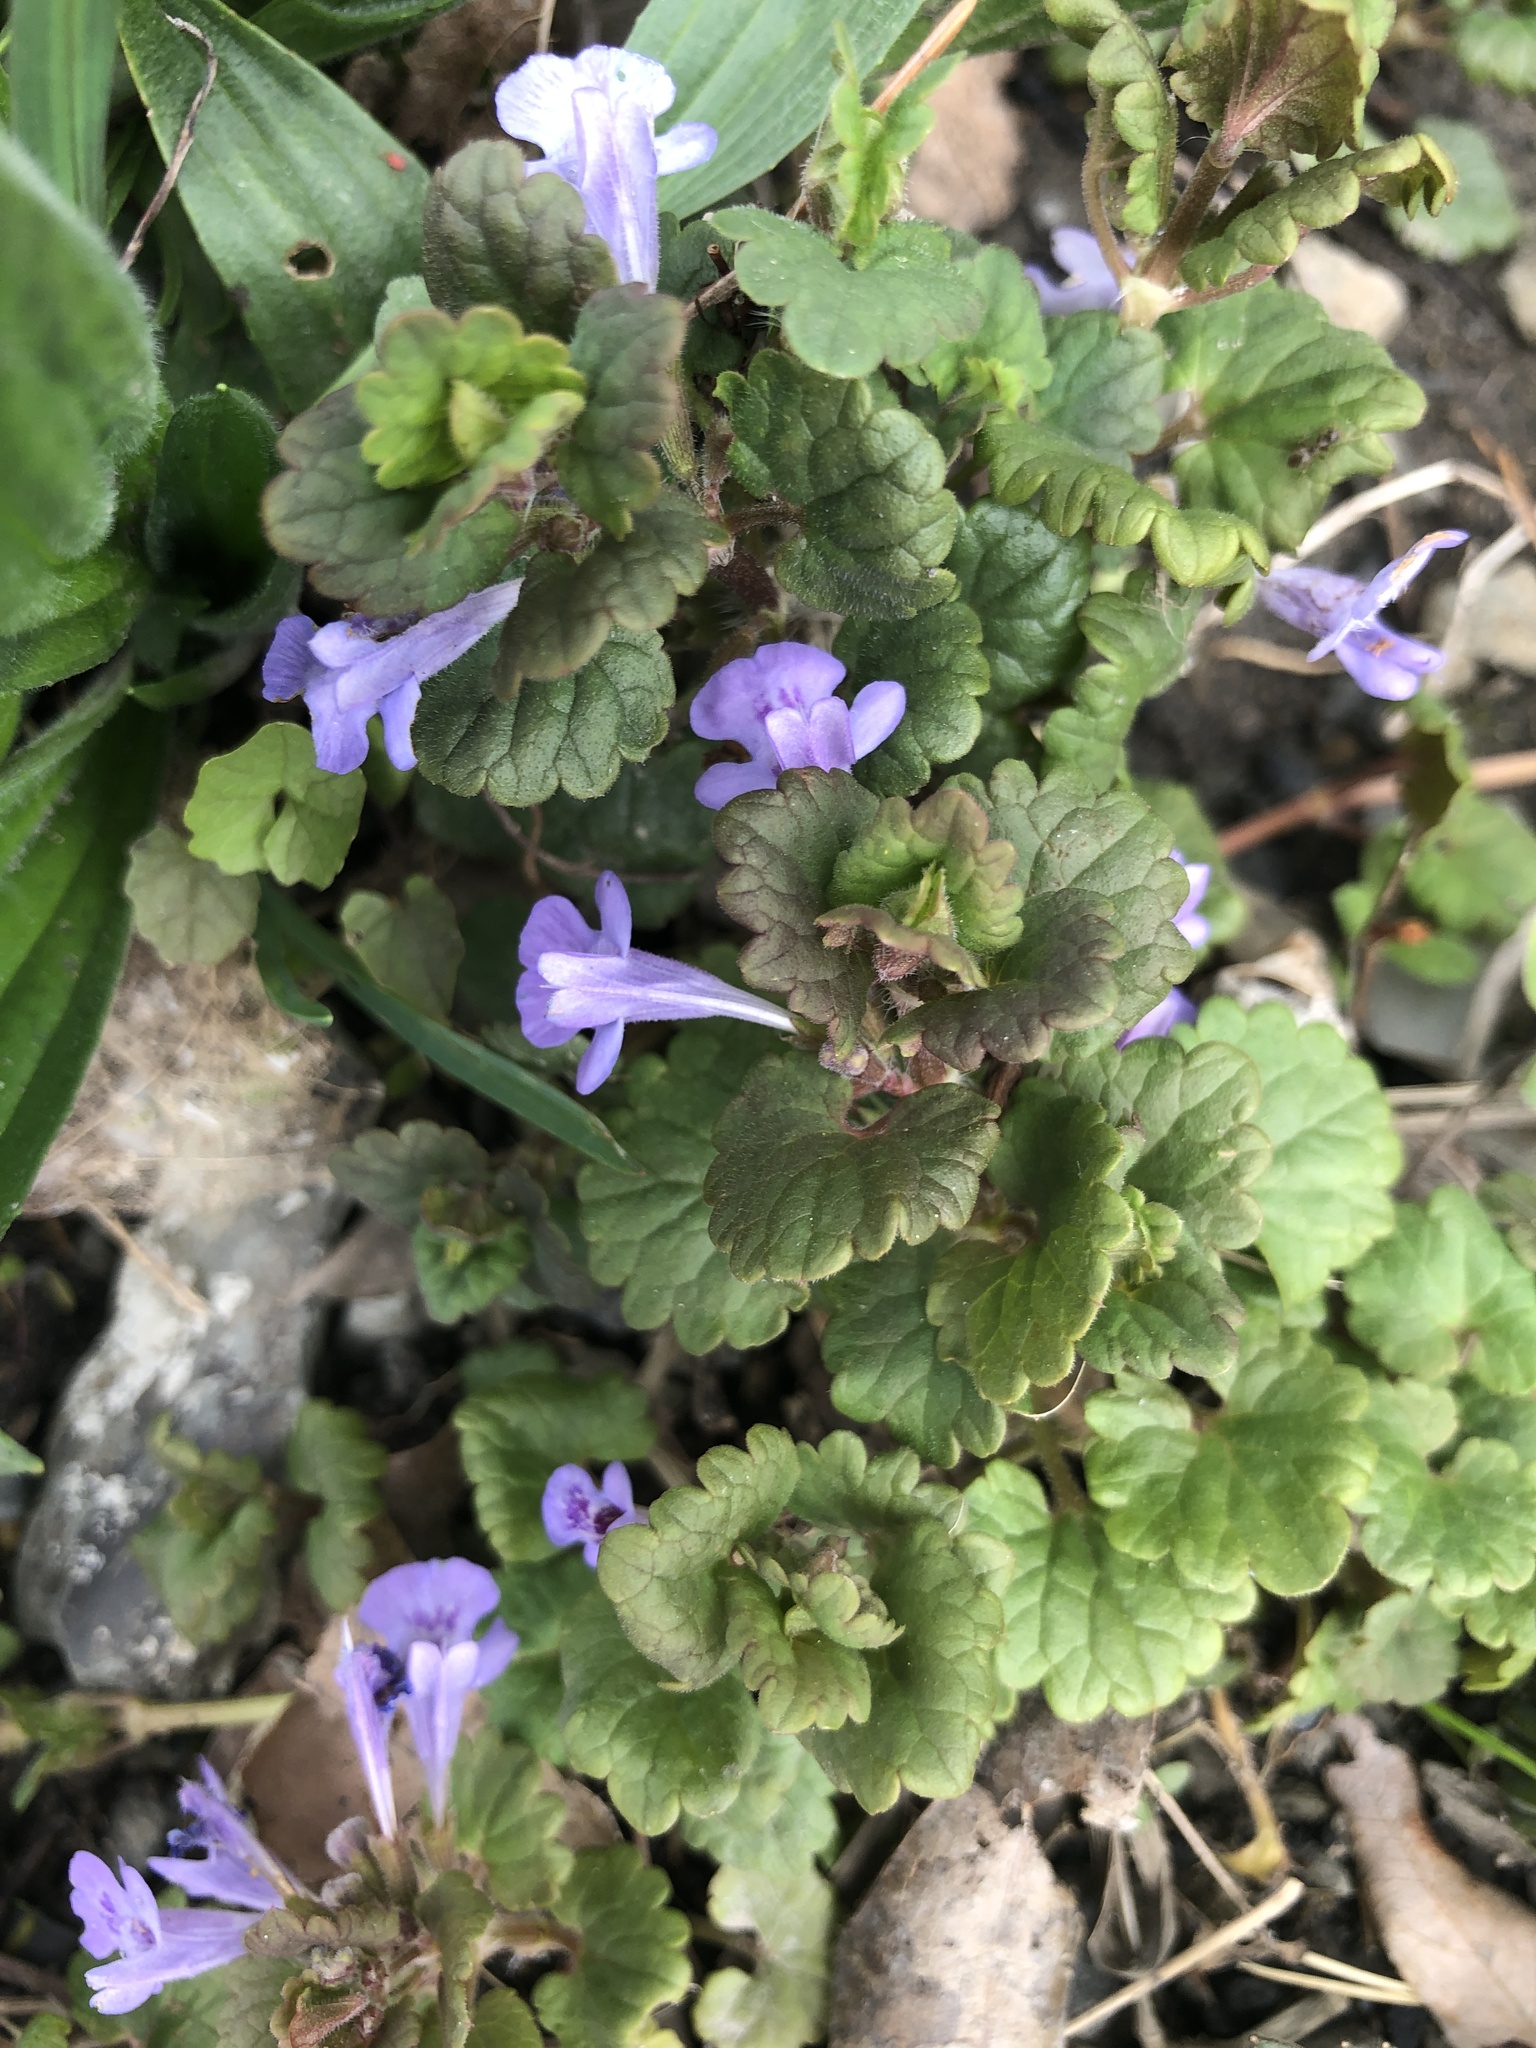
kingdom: Plantae
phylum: Tracheophyta
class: Magnoliopsida
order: Lamiales
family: Lamiaceae
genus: Glechoma
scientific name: Glechoma hederacea
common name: Ground ivy
